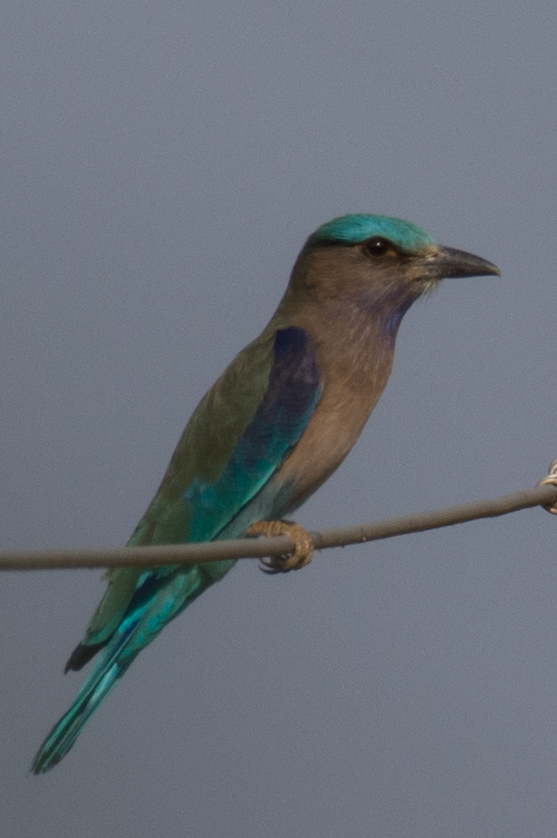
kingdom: Animalia
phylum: Chordata
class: Aves
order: Coraciiformes
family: Coraciidae
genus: Coracias
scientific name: Coracias affinis
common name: Indochinese roller
